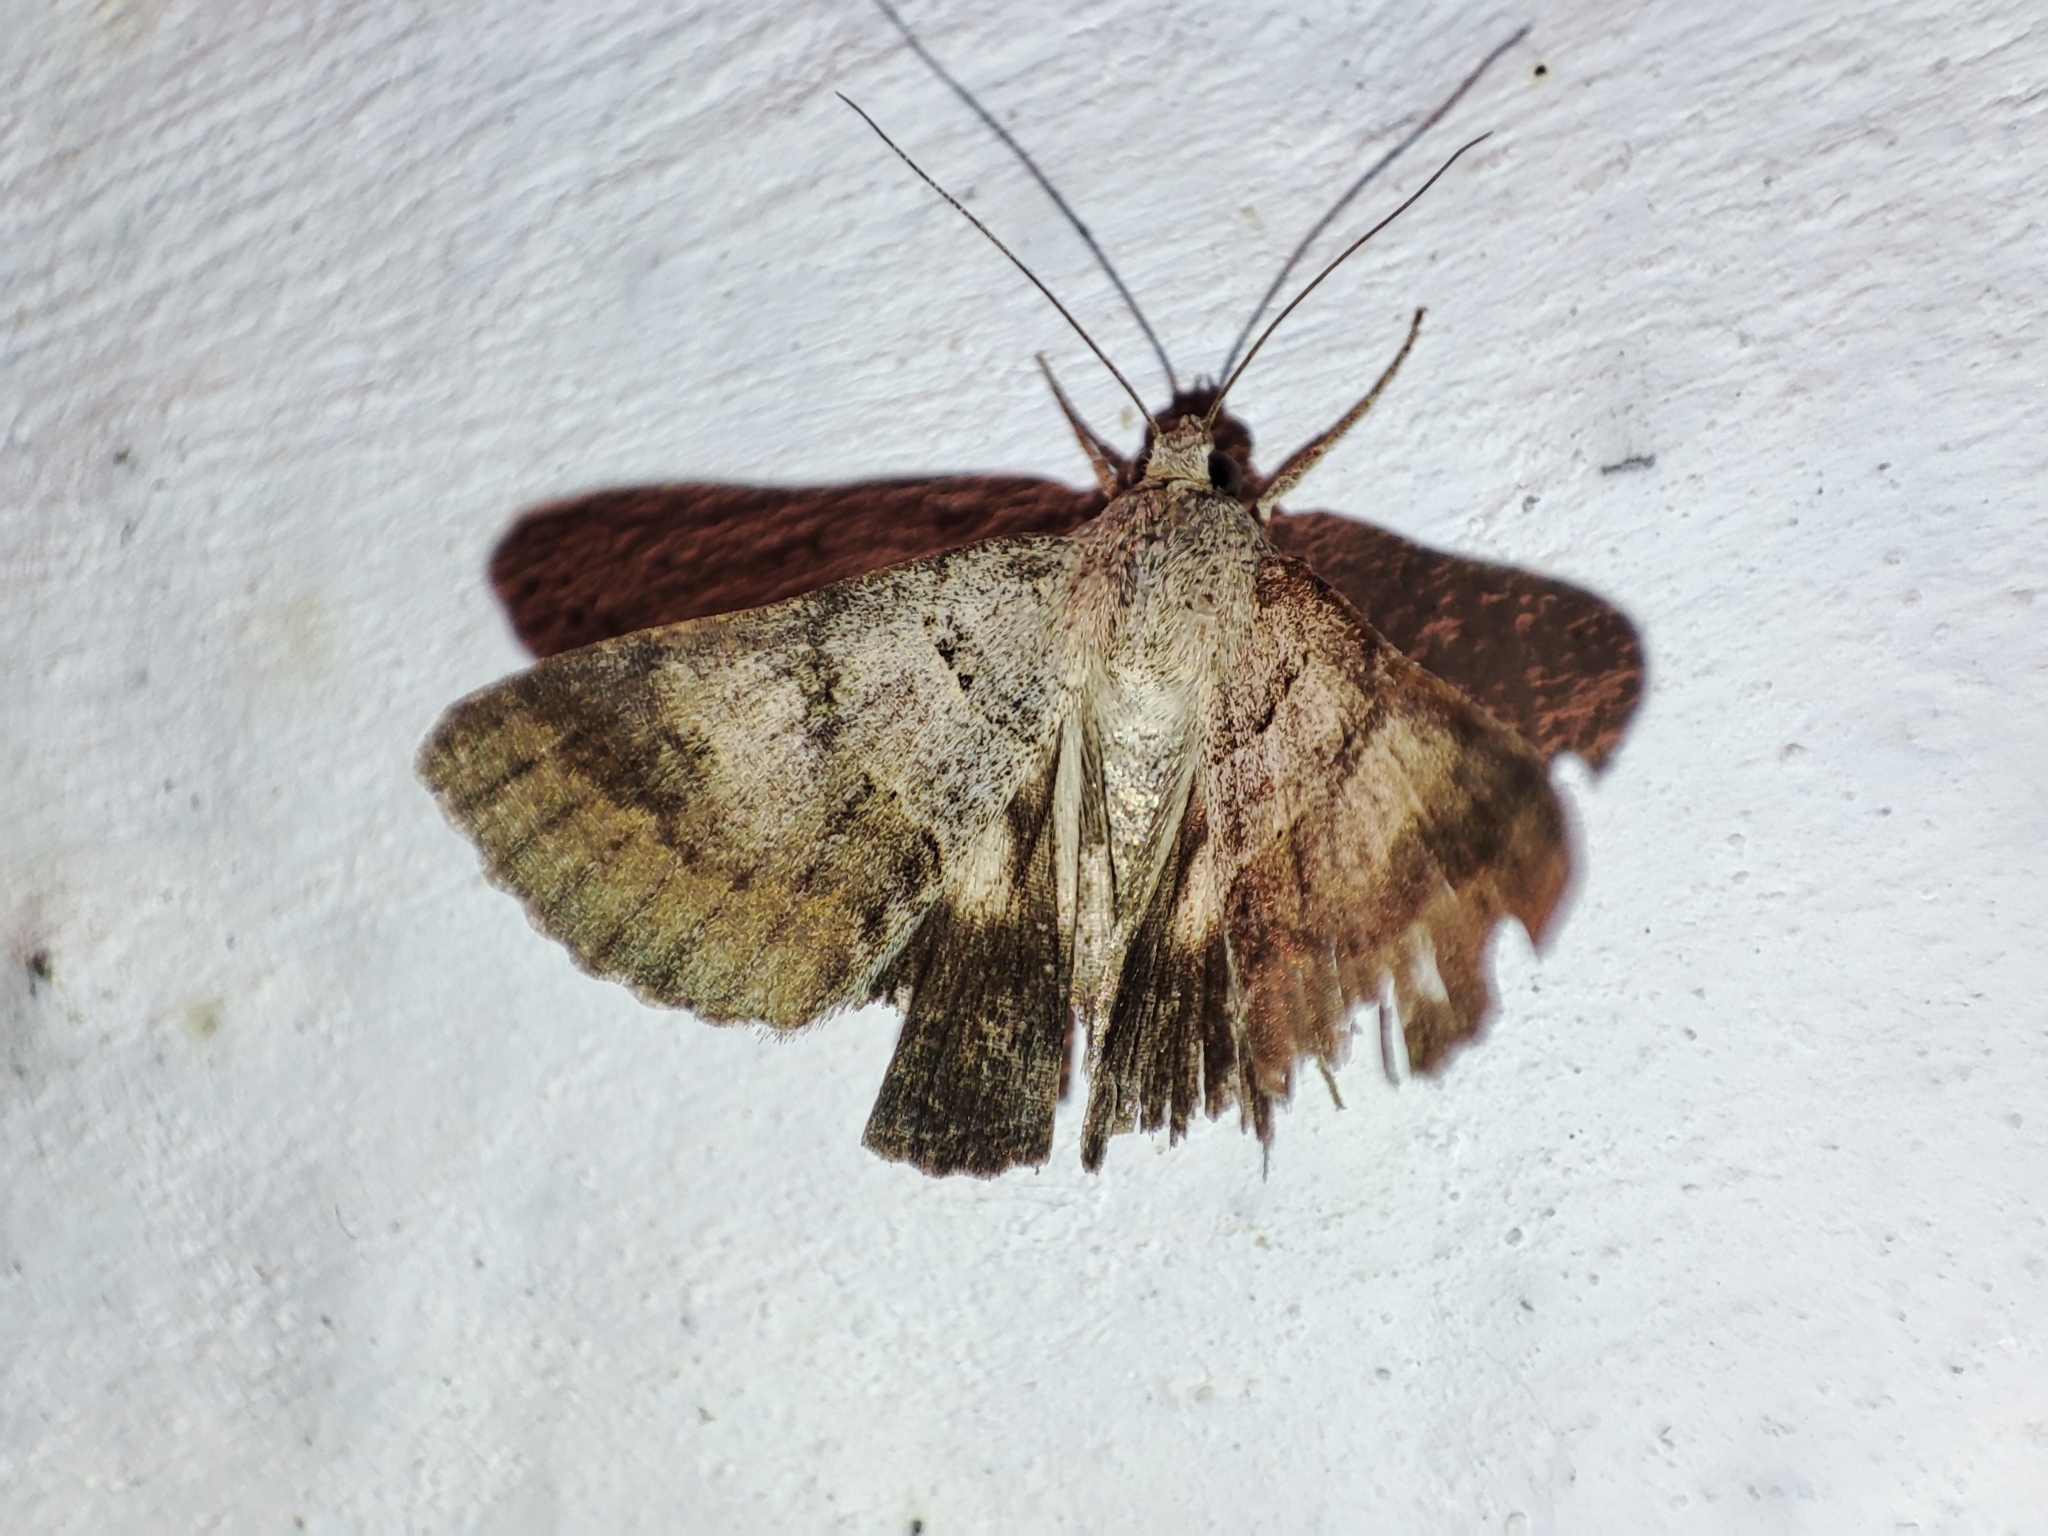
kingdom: Animalia
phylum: Arthropoda
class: Insecta
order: Lepidoptera
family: Erebidae
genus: Drasteria
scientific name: Drasteria caucasica
